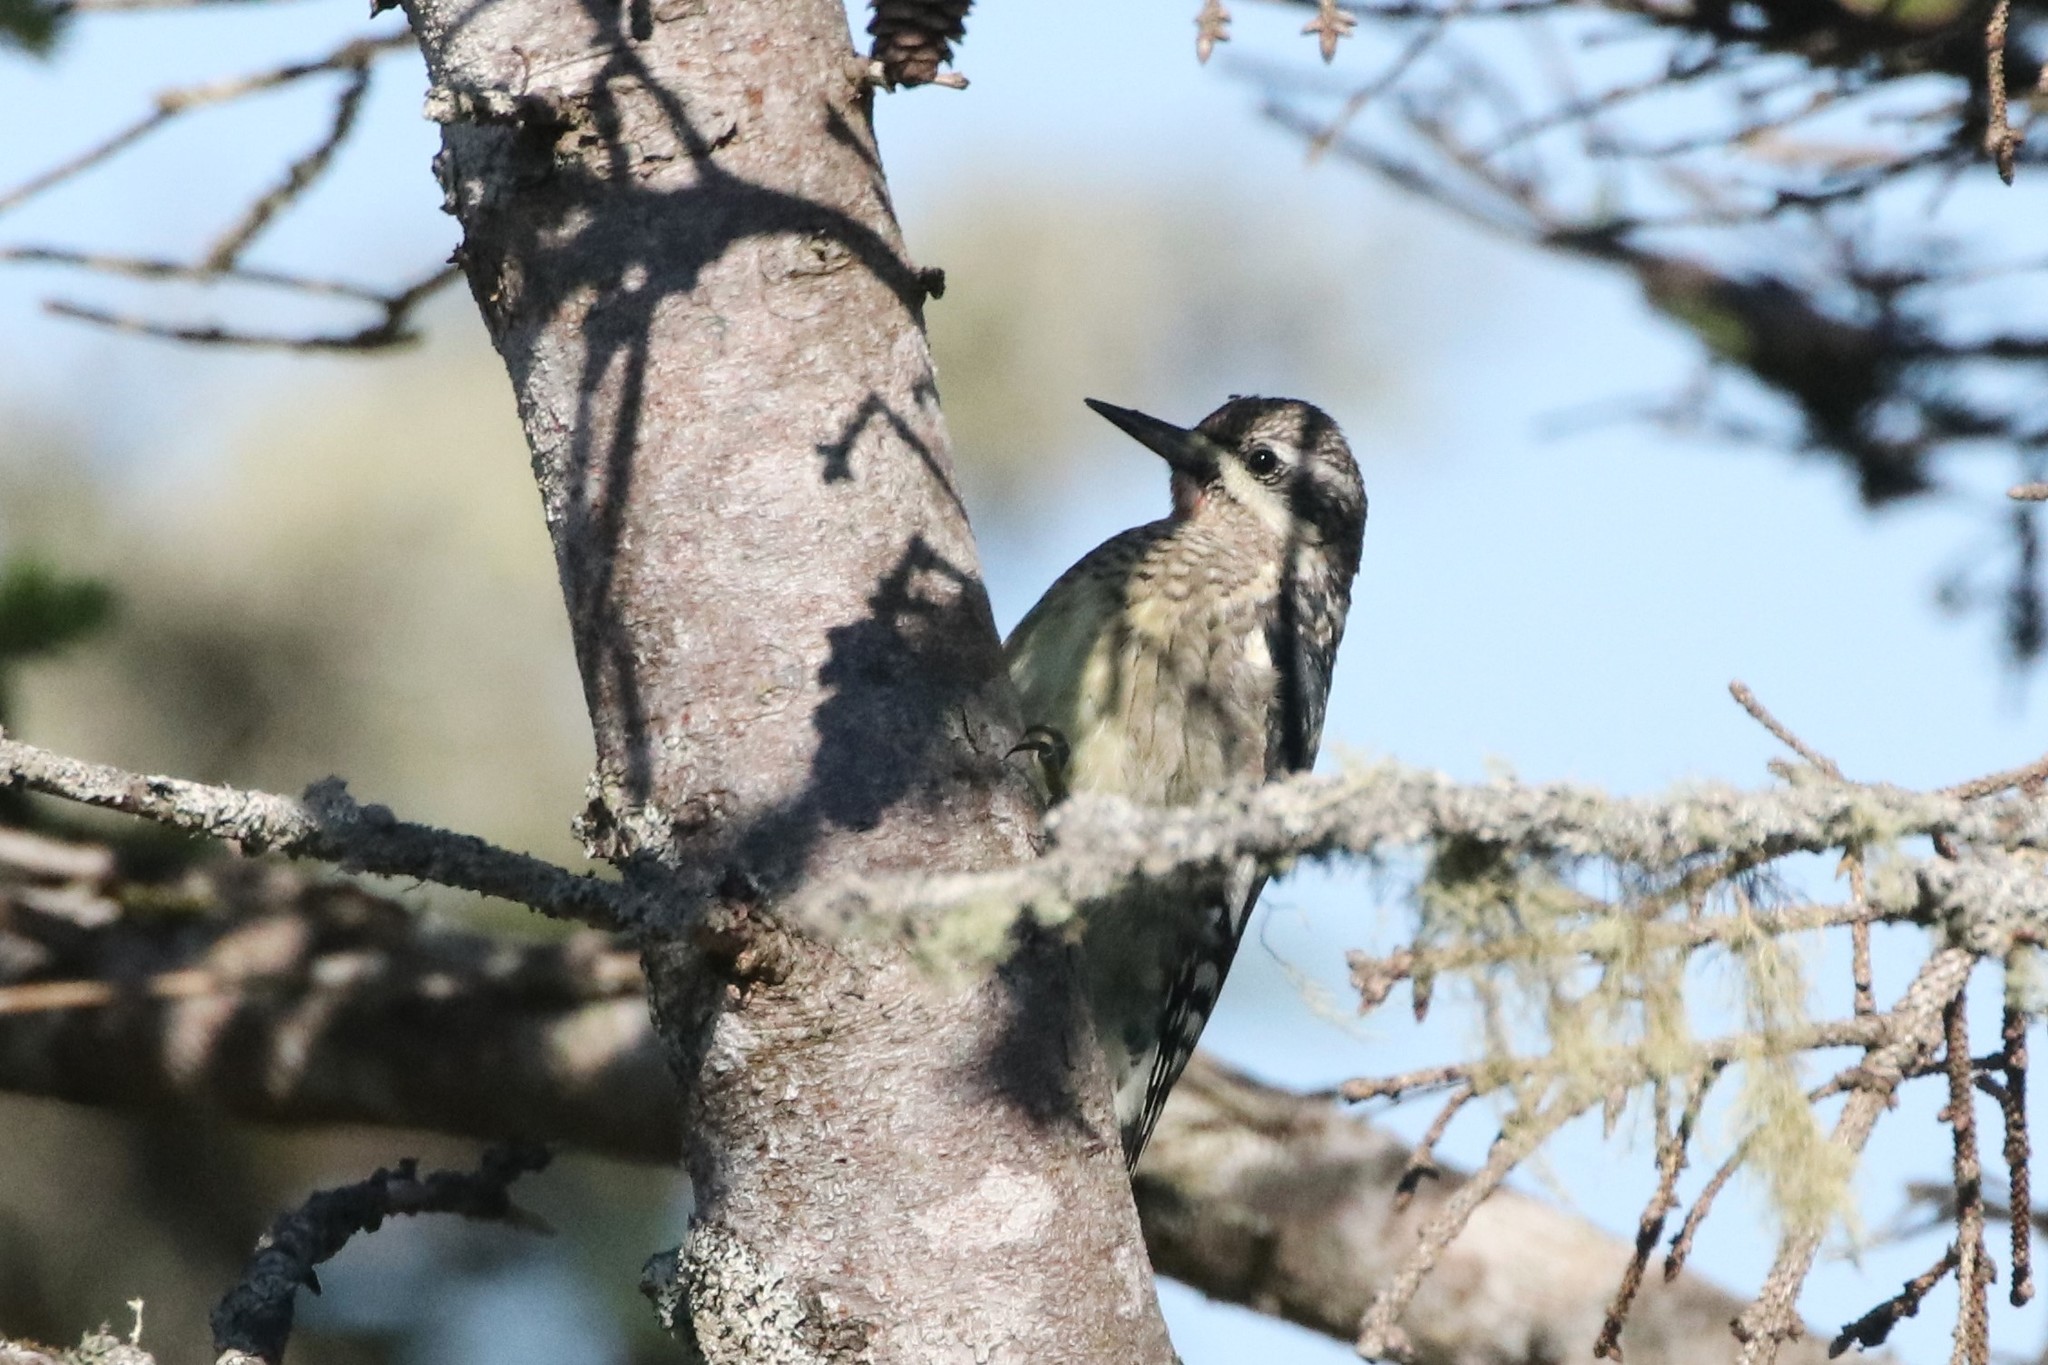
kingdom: Animalia
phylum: Chordata
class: Aves
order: Piciformes
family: Picidae
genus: Sphyrapicus
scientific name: Sphyrapicus varius
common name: Yellow-bellied sapsucker
